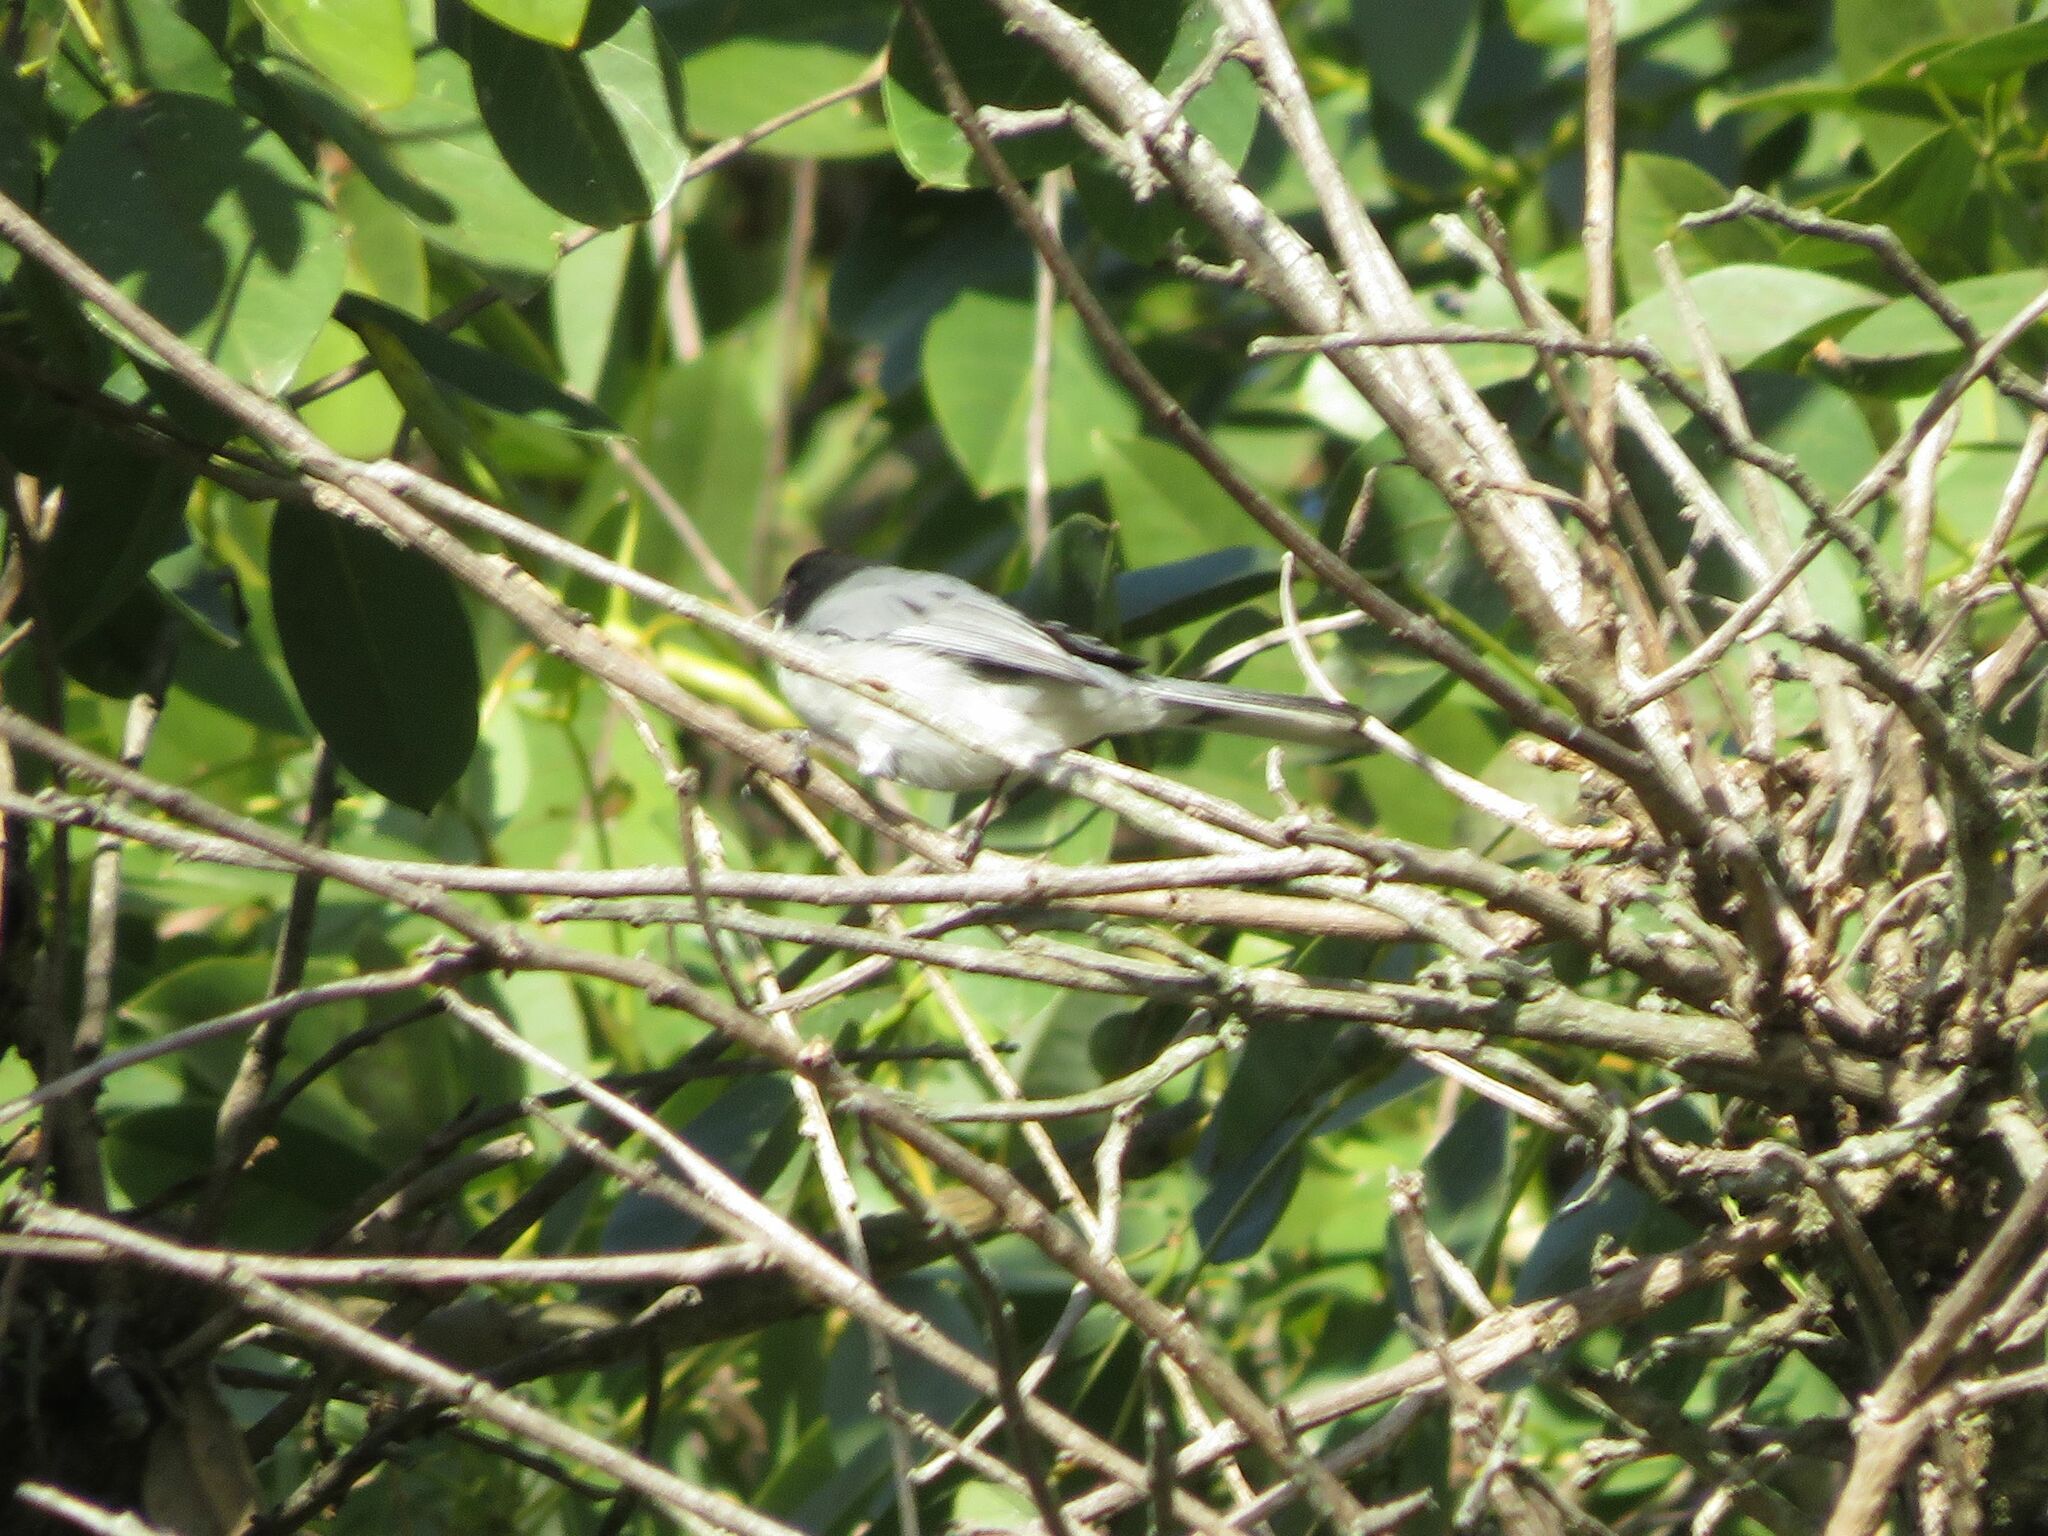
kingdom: Animalia
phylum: Chordata
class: Aves
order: Passeriformes
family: Thraupidae
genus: Microspingus
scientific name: Microspingus melanoleucus
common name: Black-capped warbling-finch
